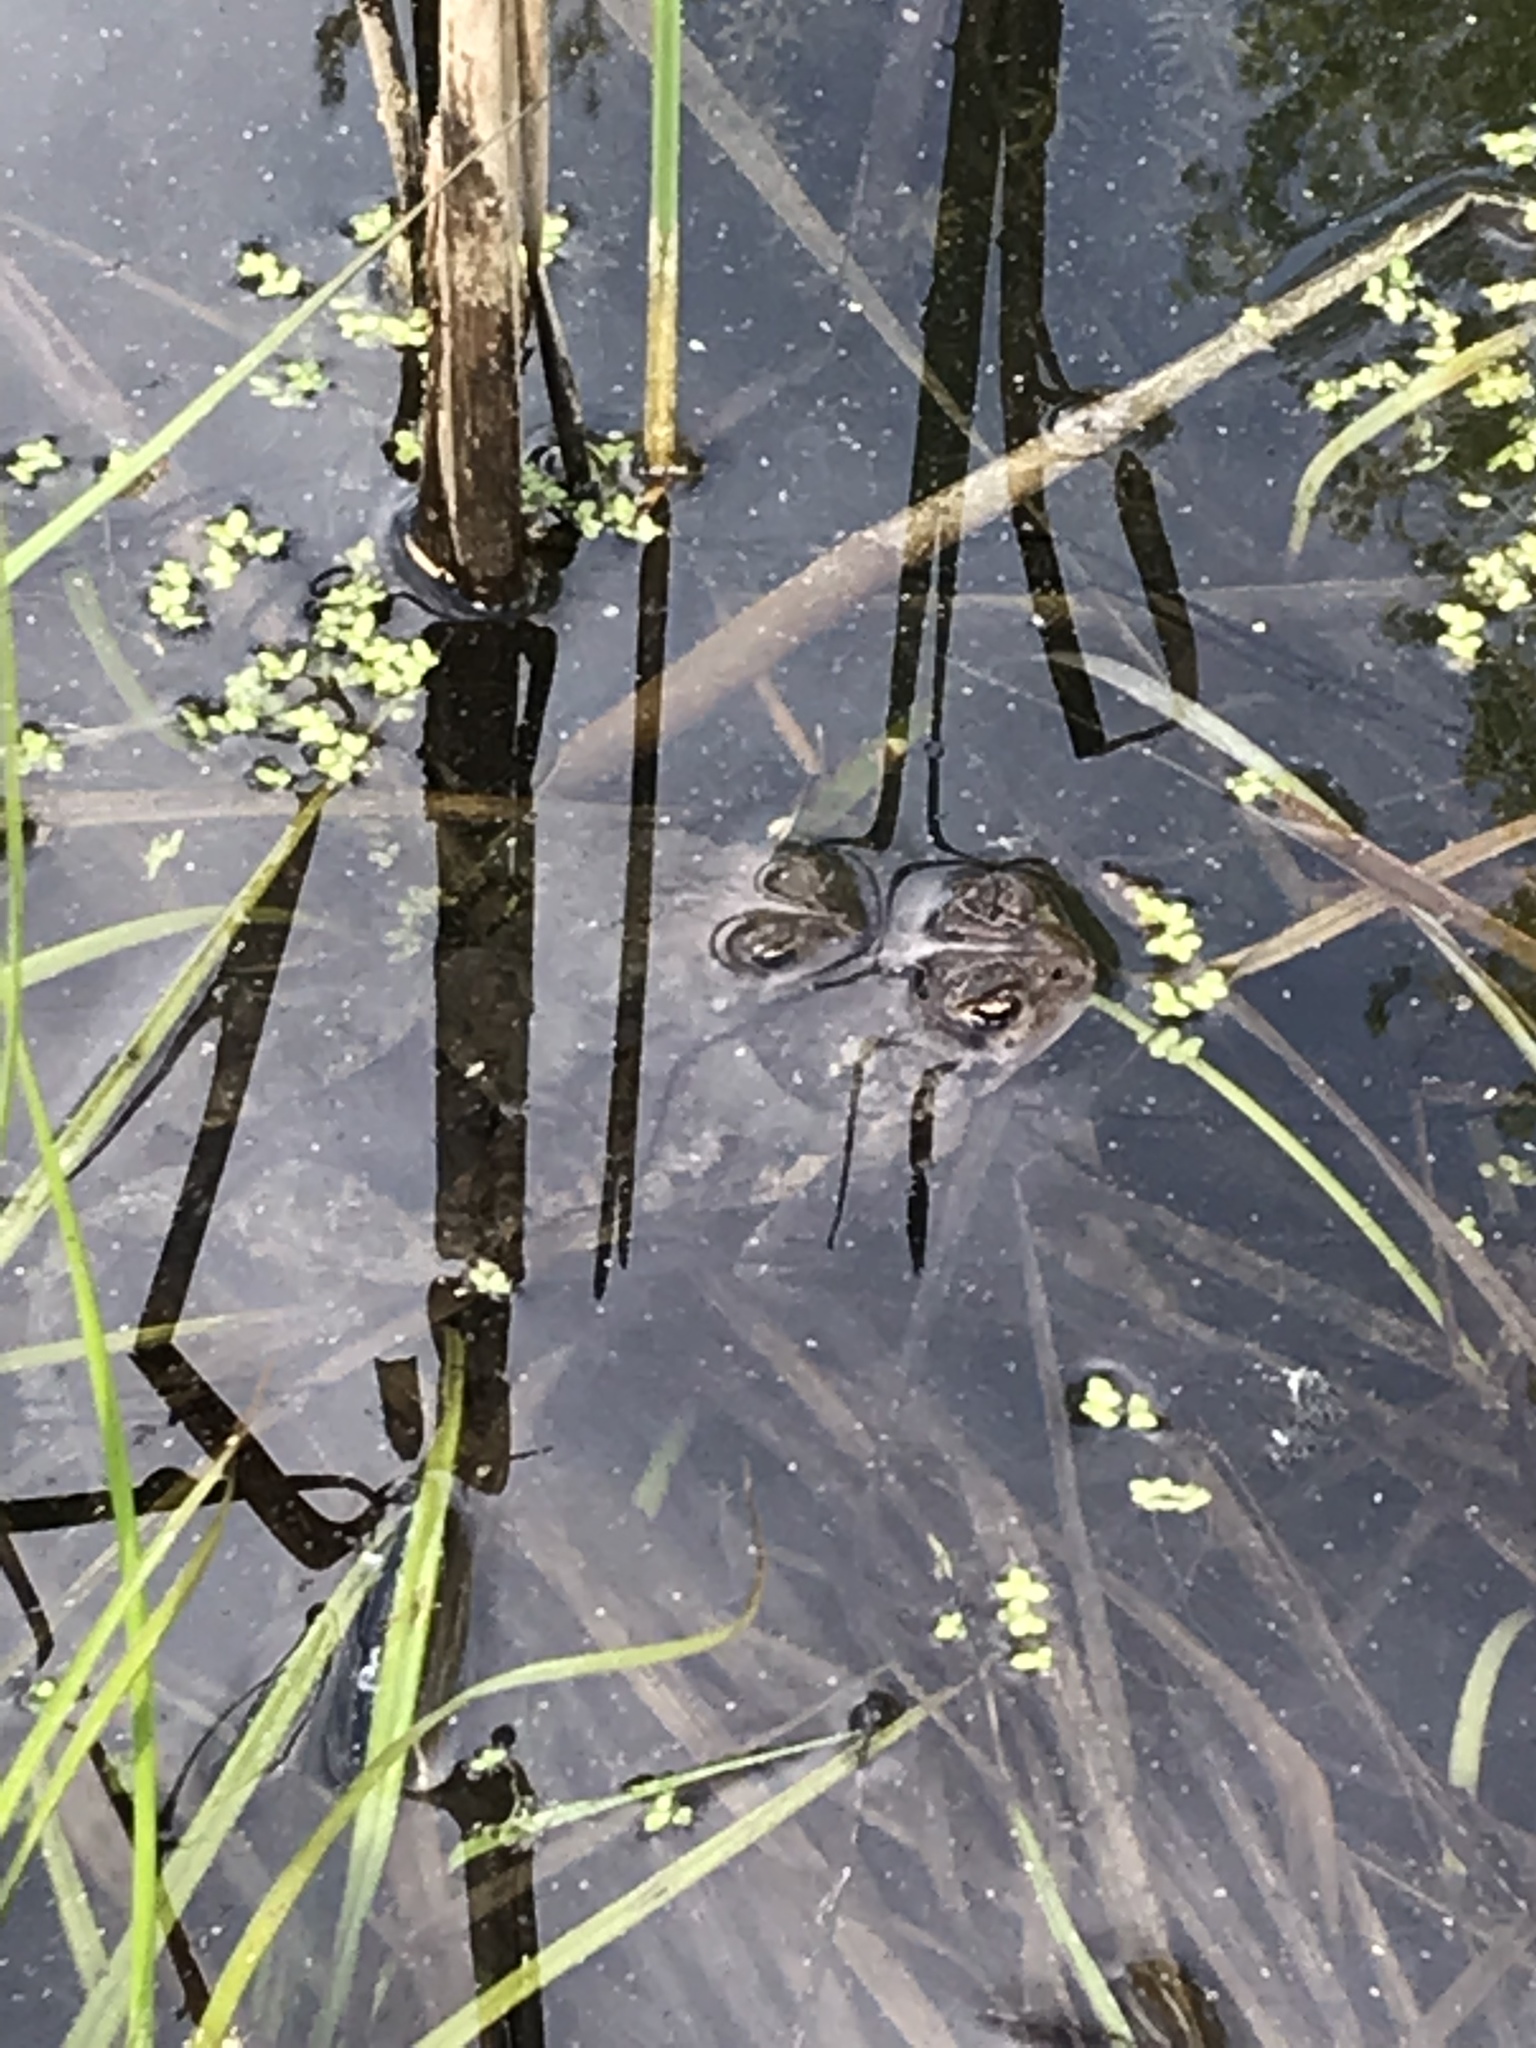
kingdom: Animalia
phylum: Chordata
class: Amphibia
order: Anura
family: Bufonidae
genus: Anaxyrus
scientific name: Anaxyrus americanus
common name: American toad
